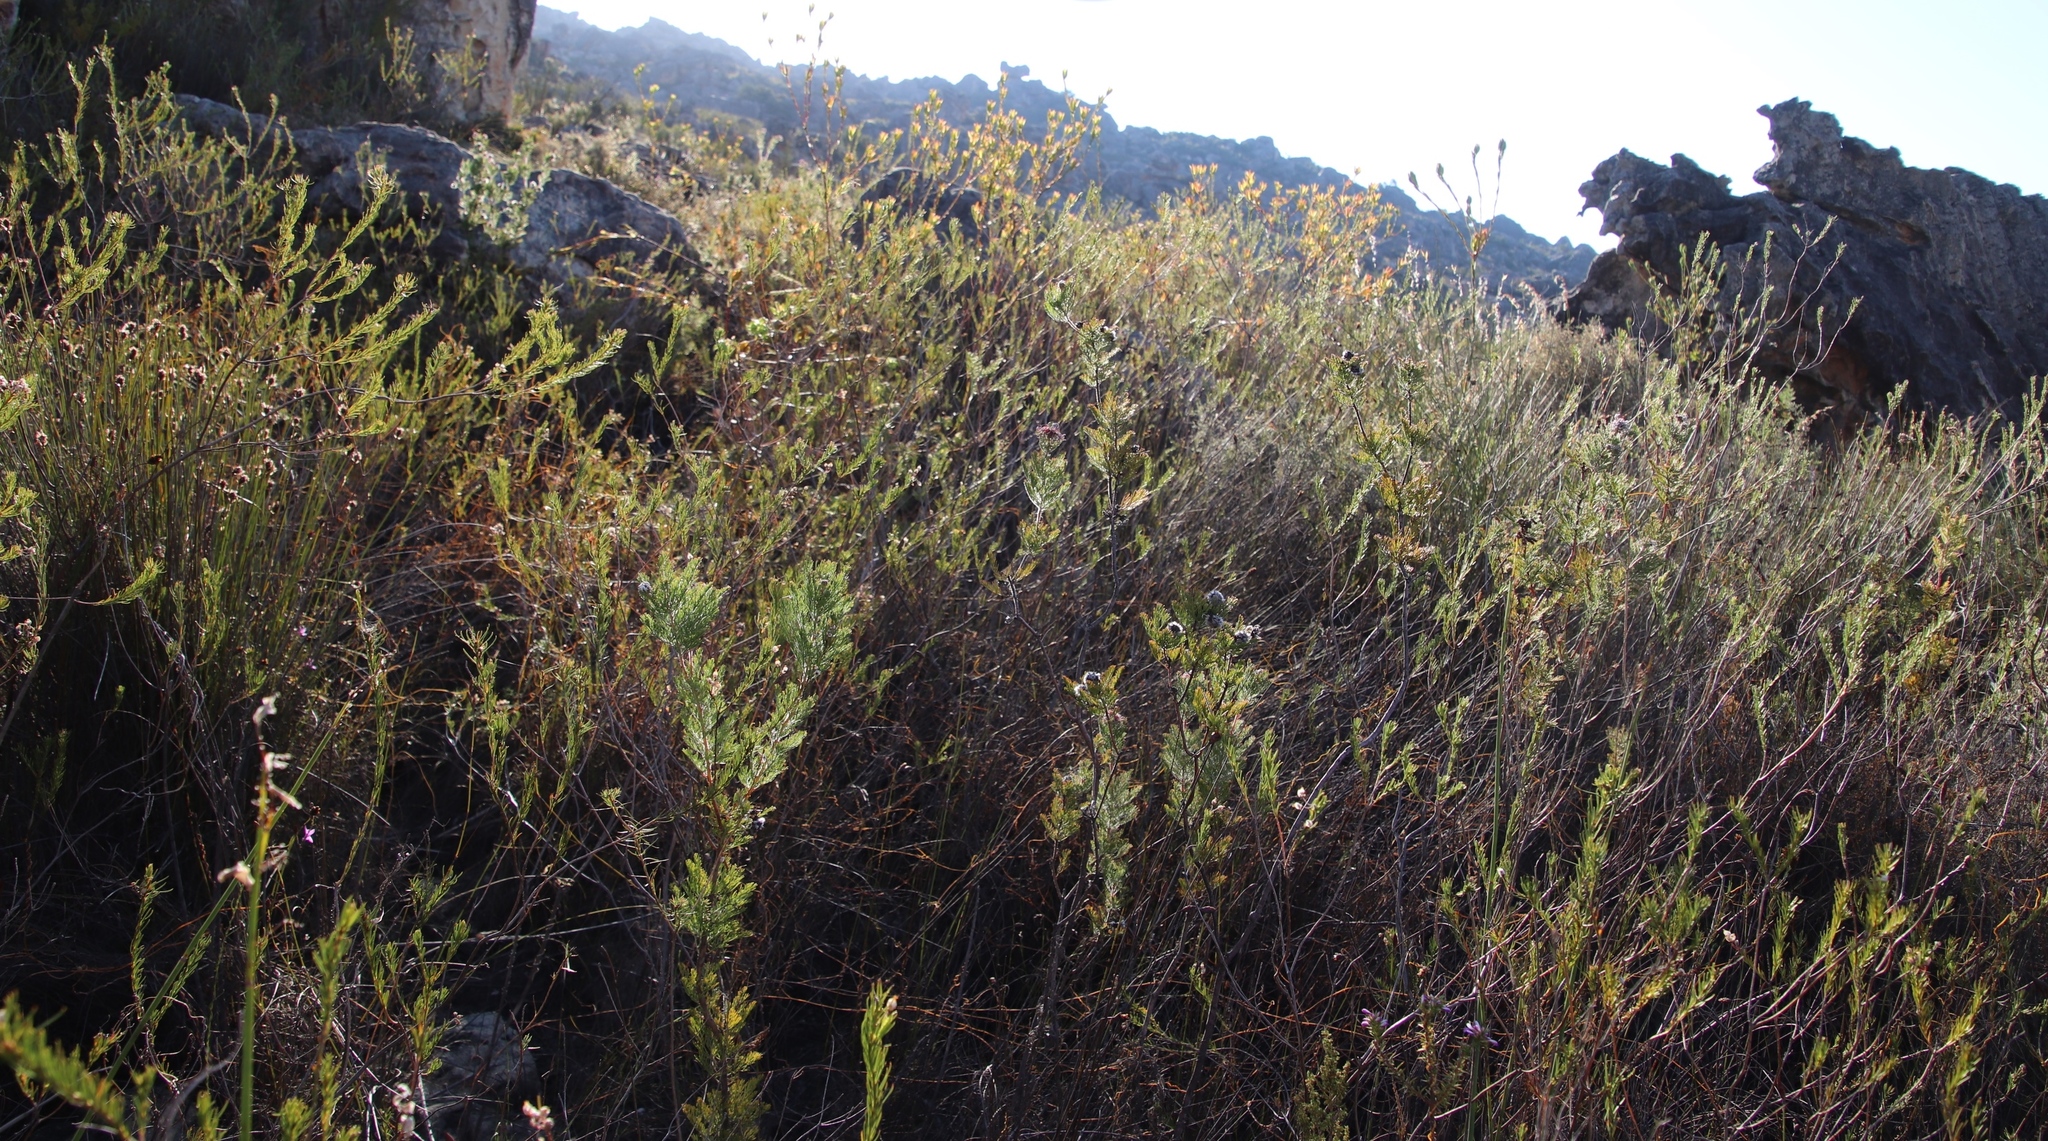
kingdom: Plantae
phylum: Tracheophyta
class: Magnoliopsida
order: Proteales
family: Proteaceae
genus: Leucadendron
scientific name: Leucadendron diemontianum
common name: Visgat conebush
